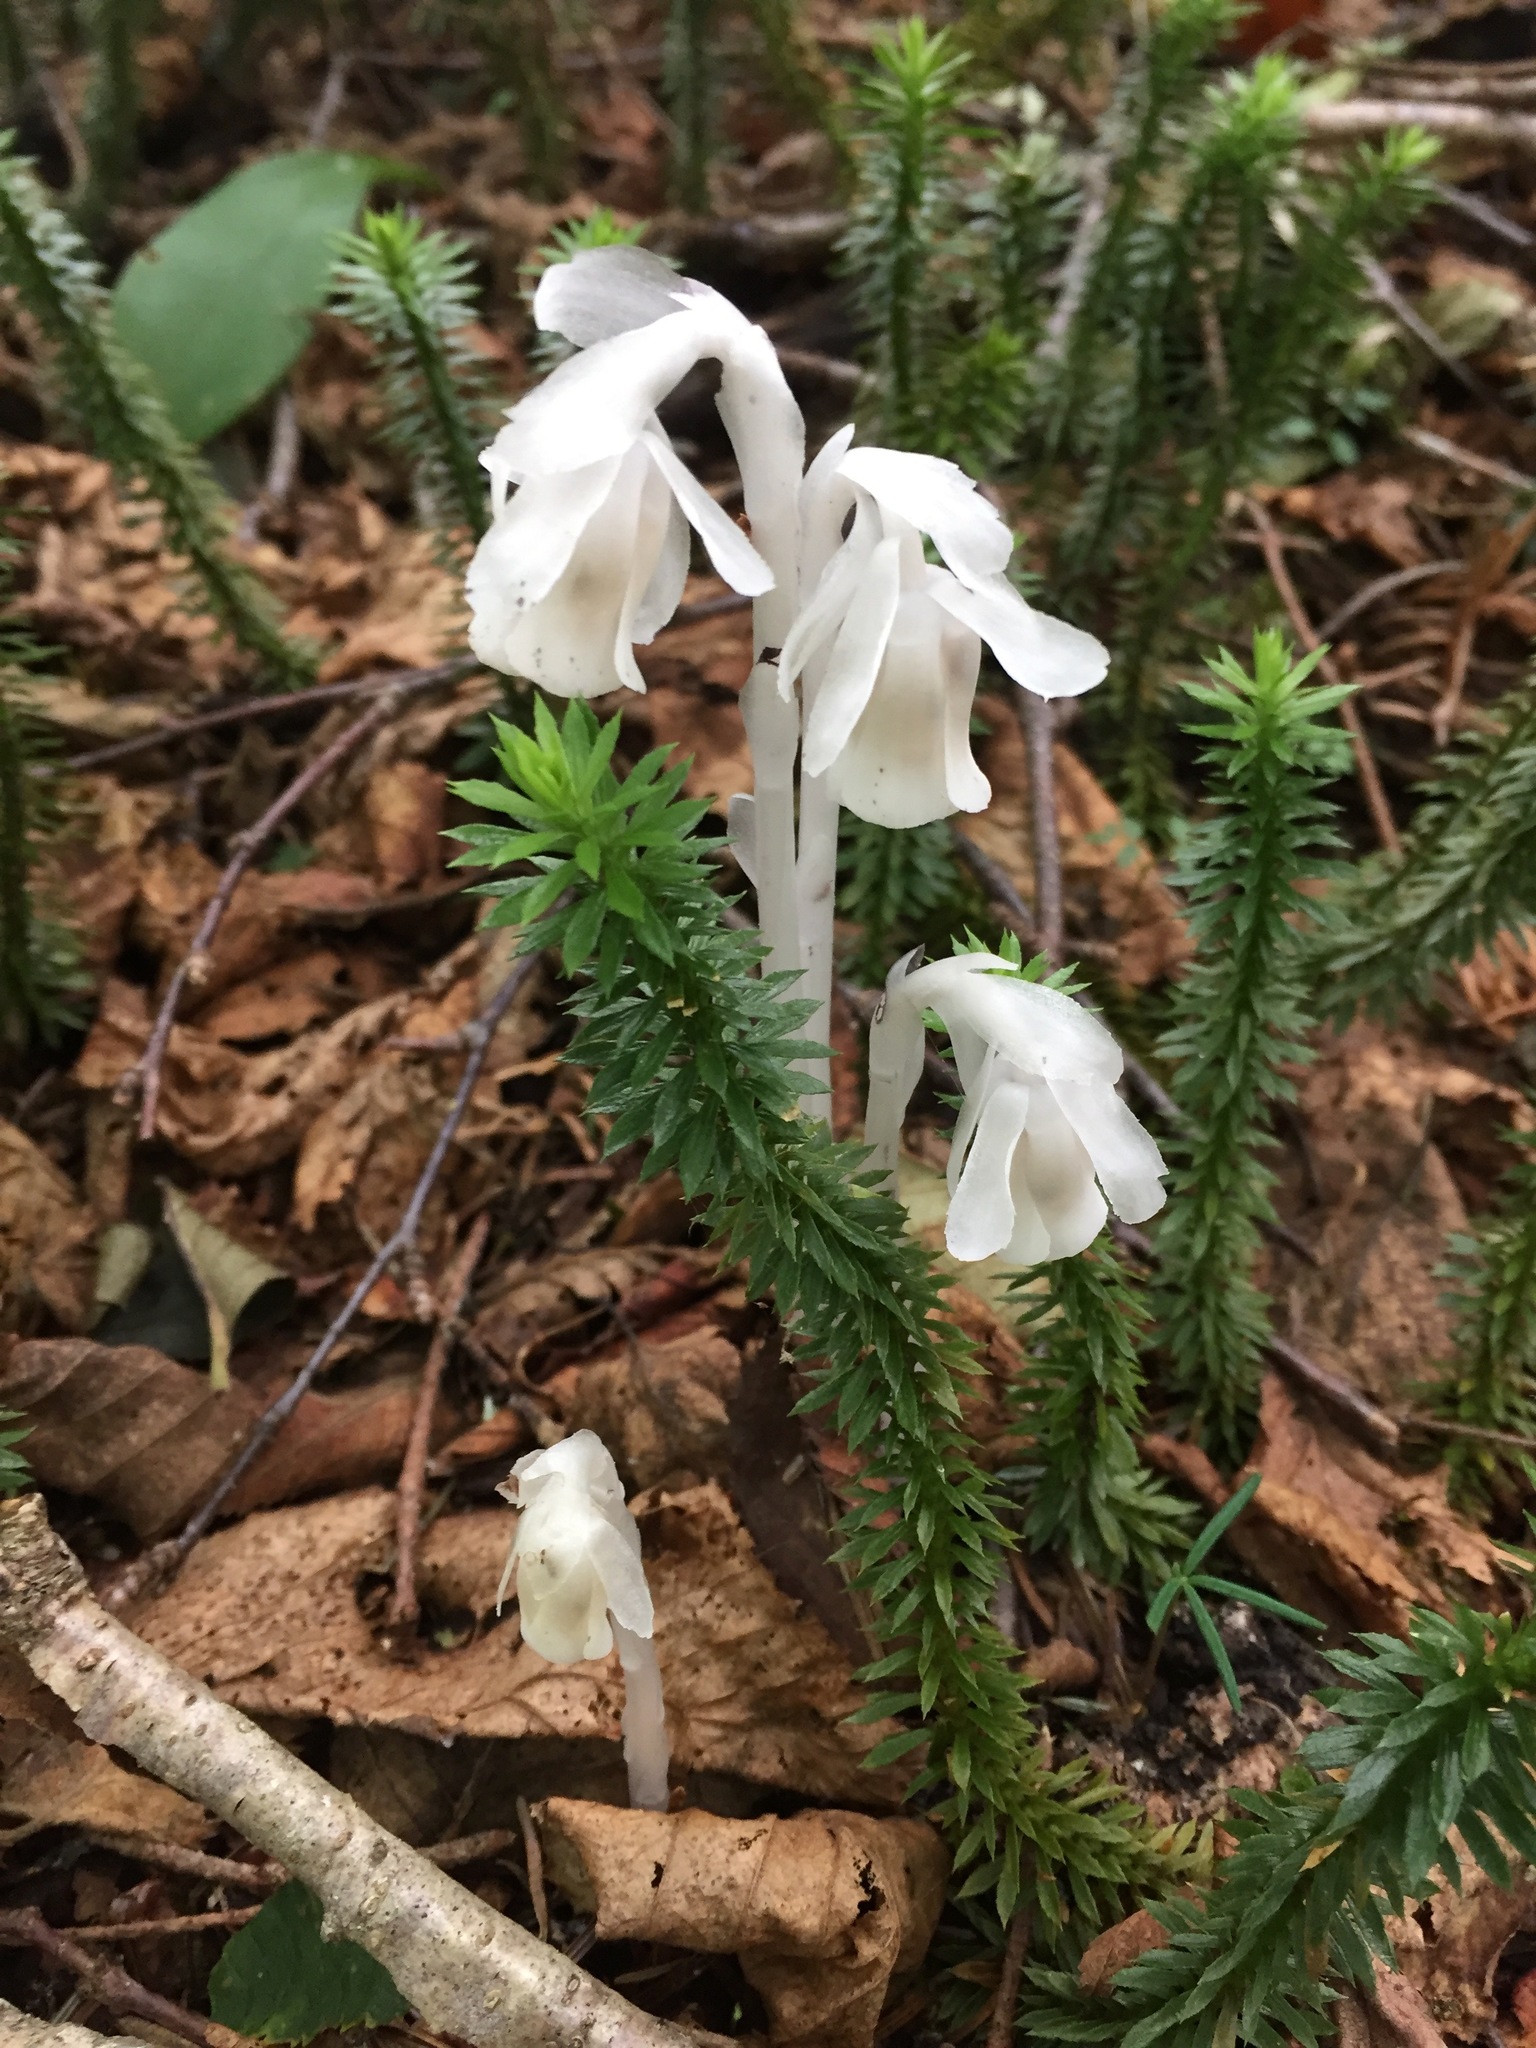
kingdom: Plantae
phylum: Tracheophyta
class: Magnoliopsida
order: Ericales
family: Ericaceae
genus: Monotropa
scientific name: Monotropa uniflora
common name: Convulsion root
